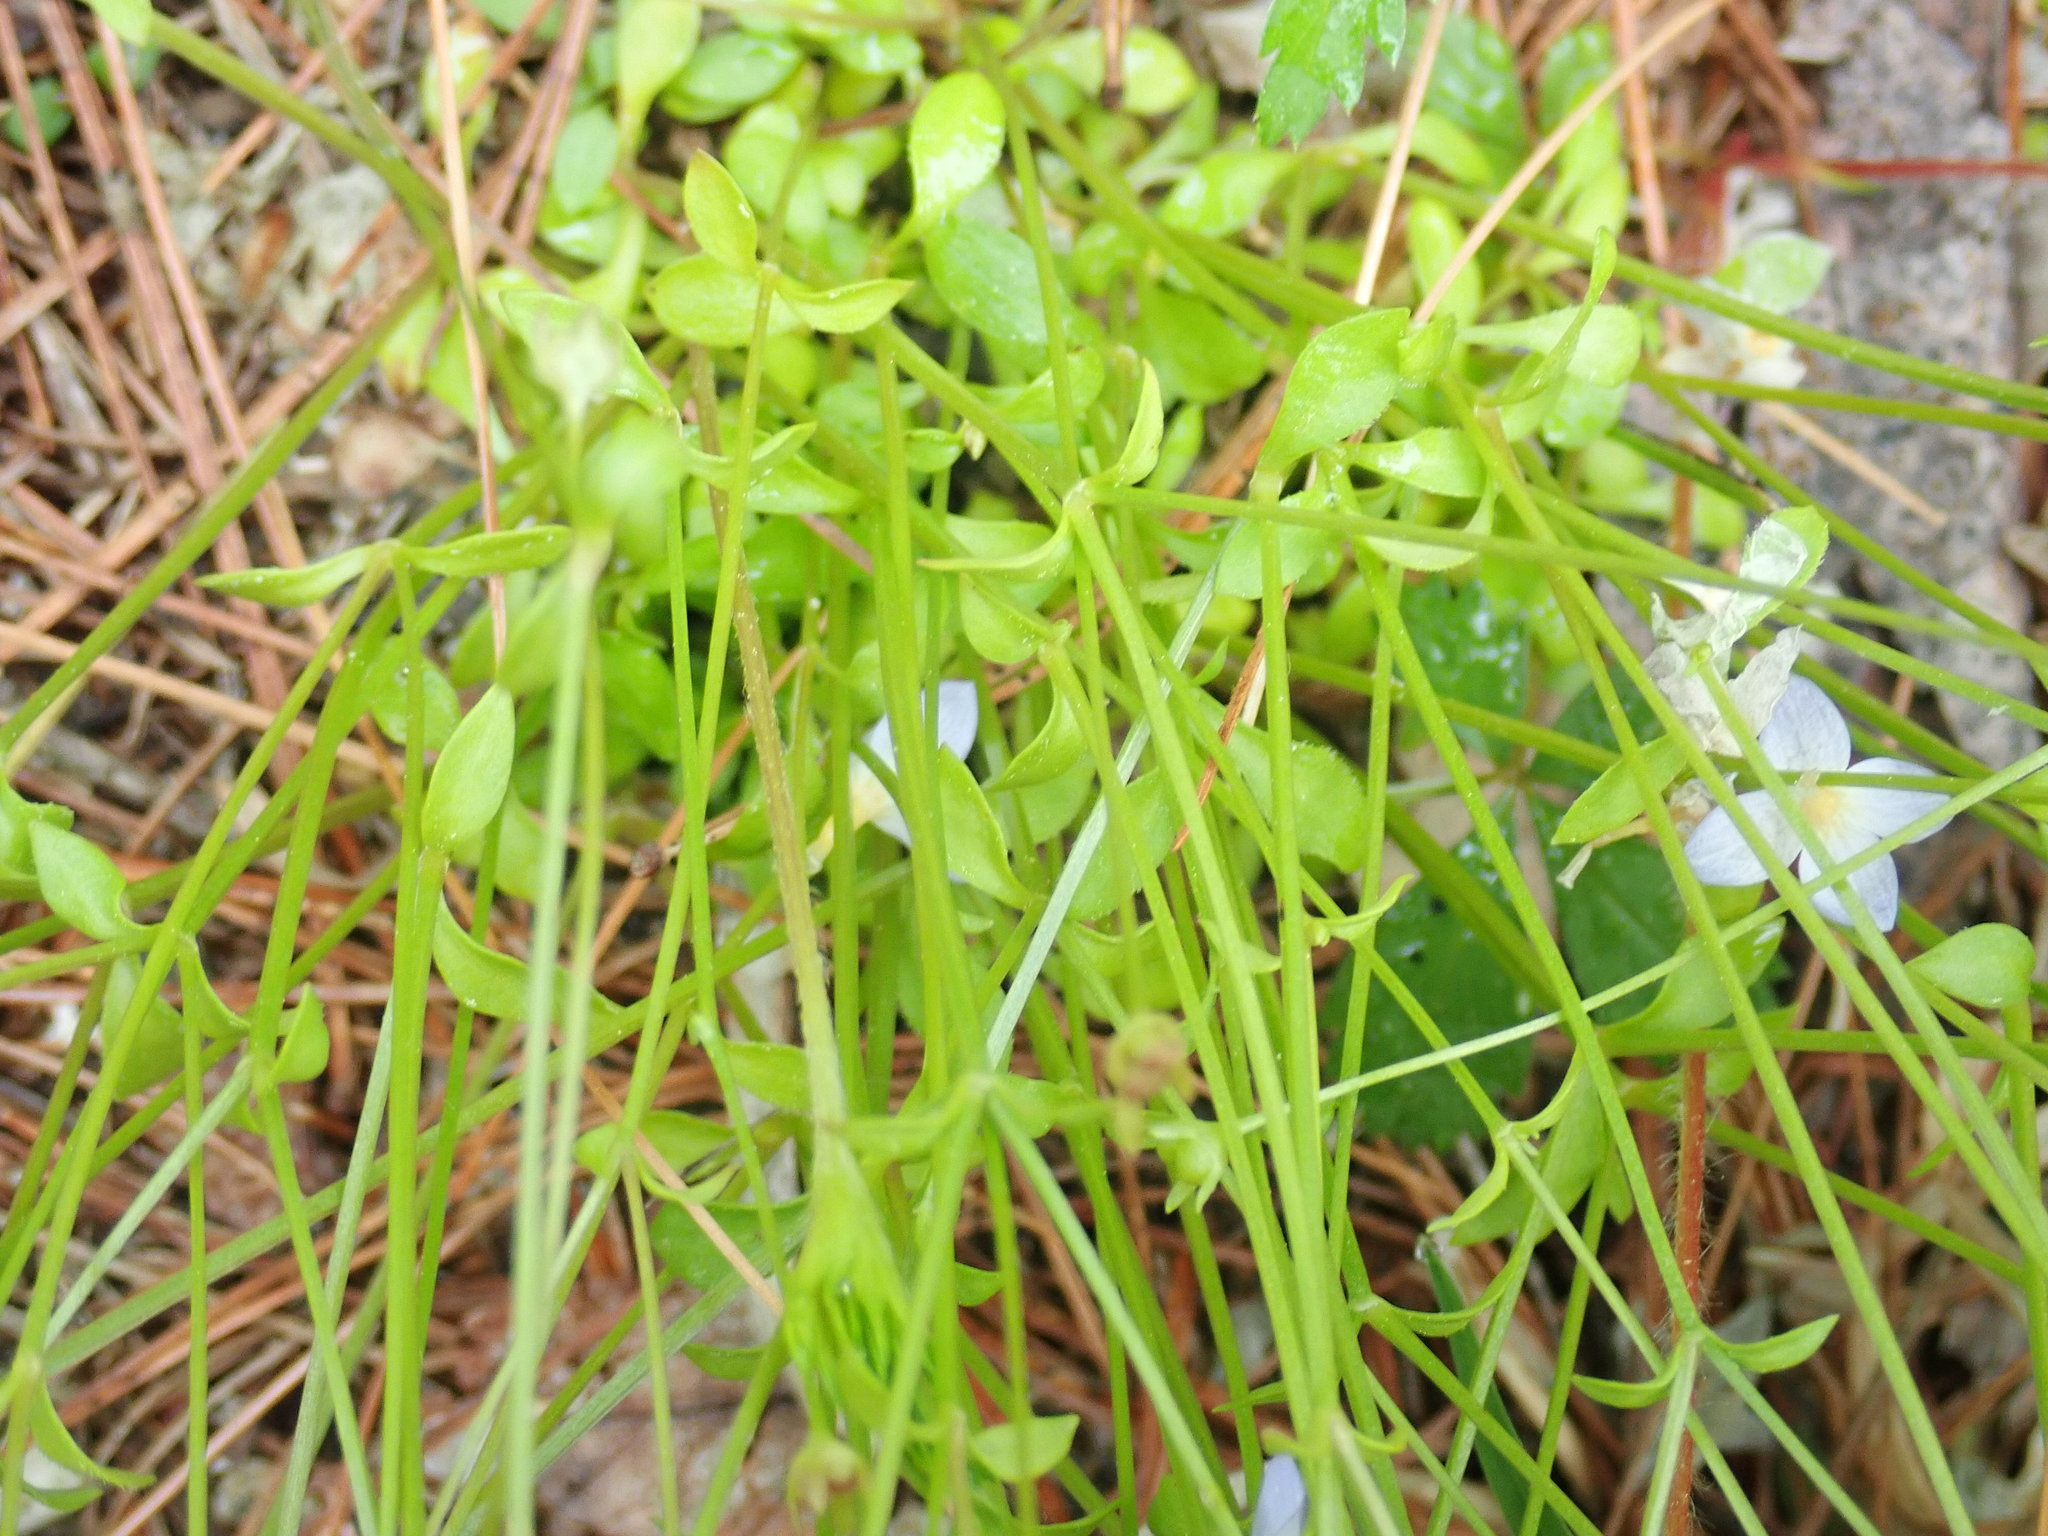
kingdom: Plantae
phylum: Tracheophyta
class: Magnoliopsida
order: Gentianales
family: Rubiaceae
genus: Houstonia
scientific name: Houstonia caerulea
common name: Bluets
